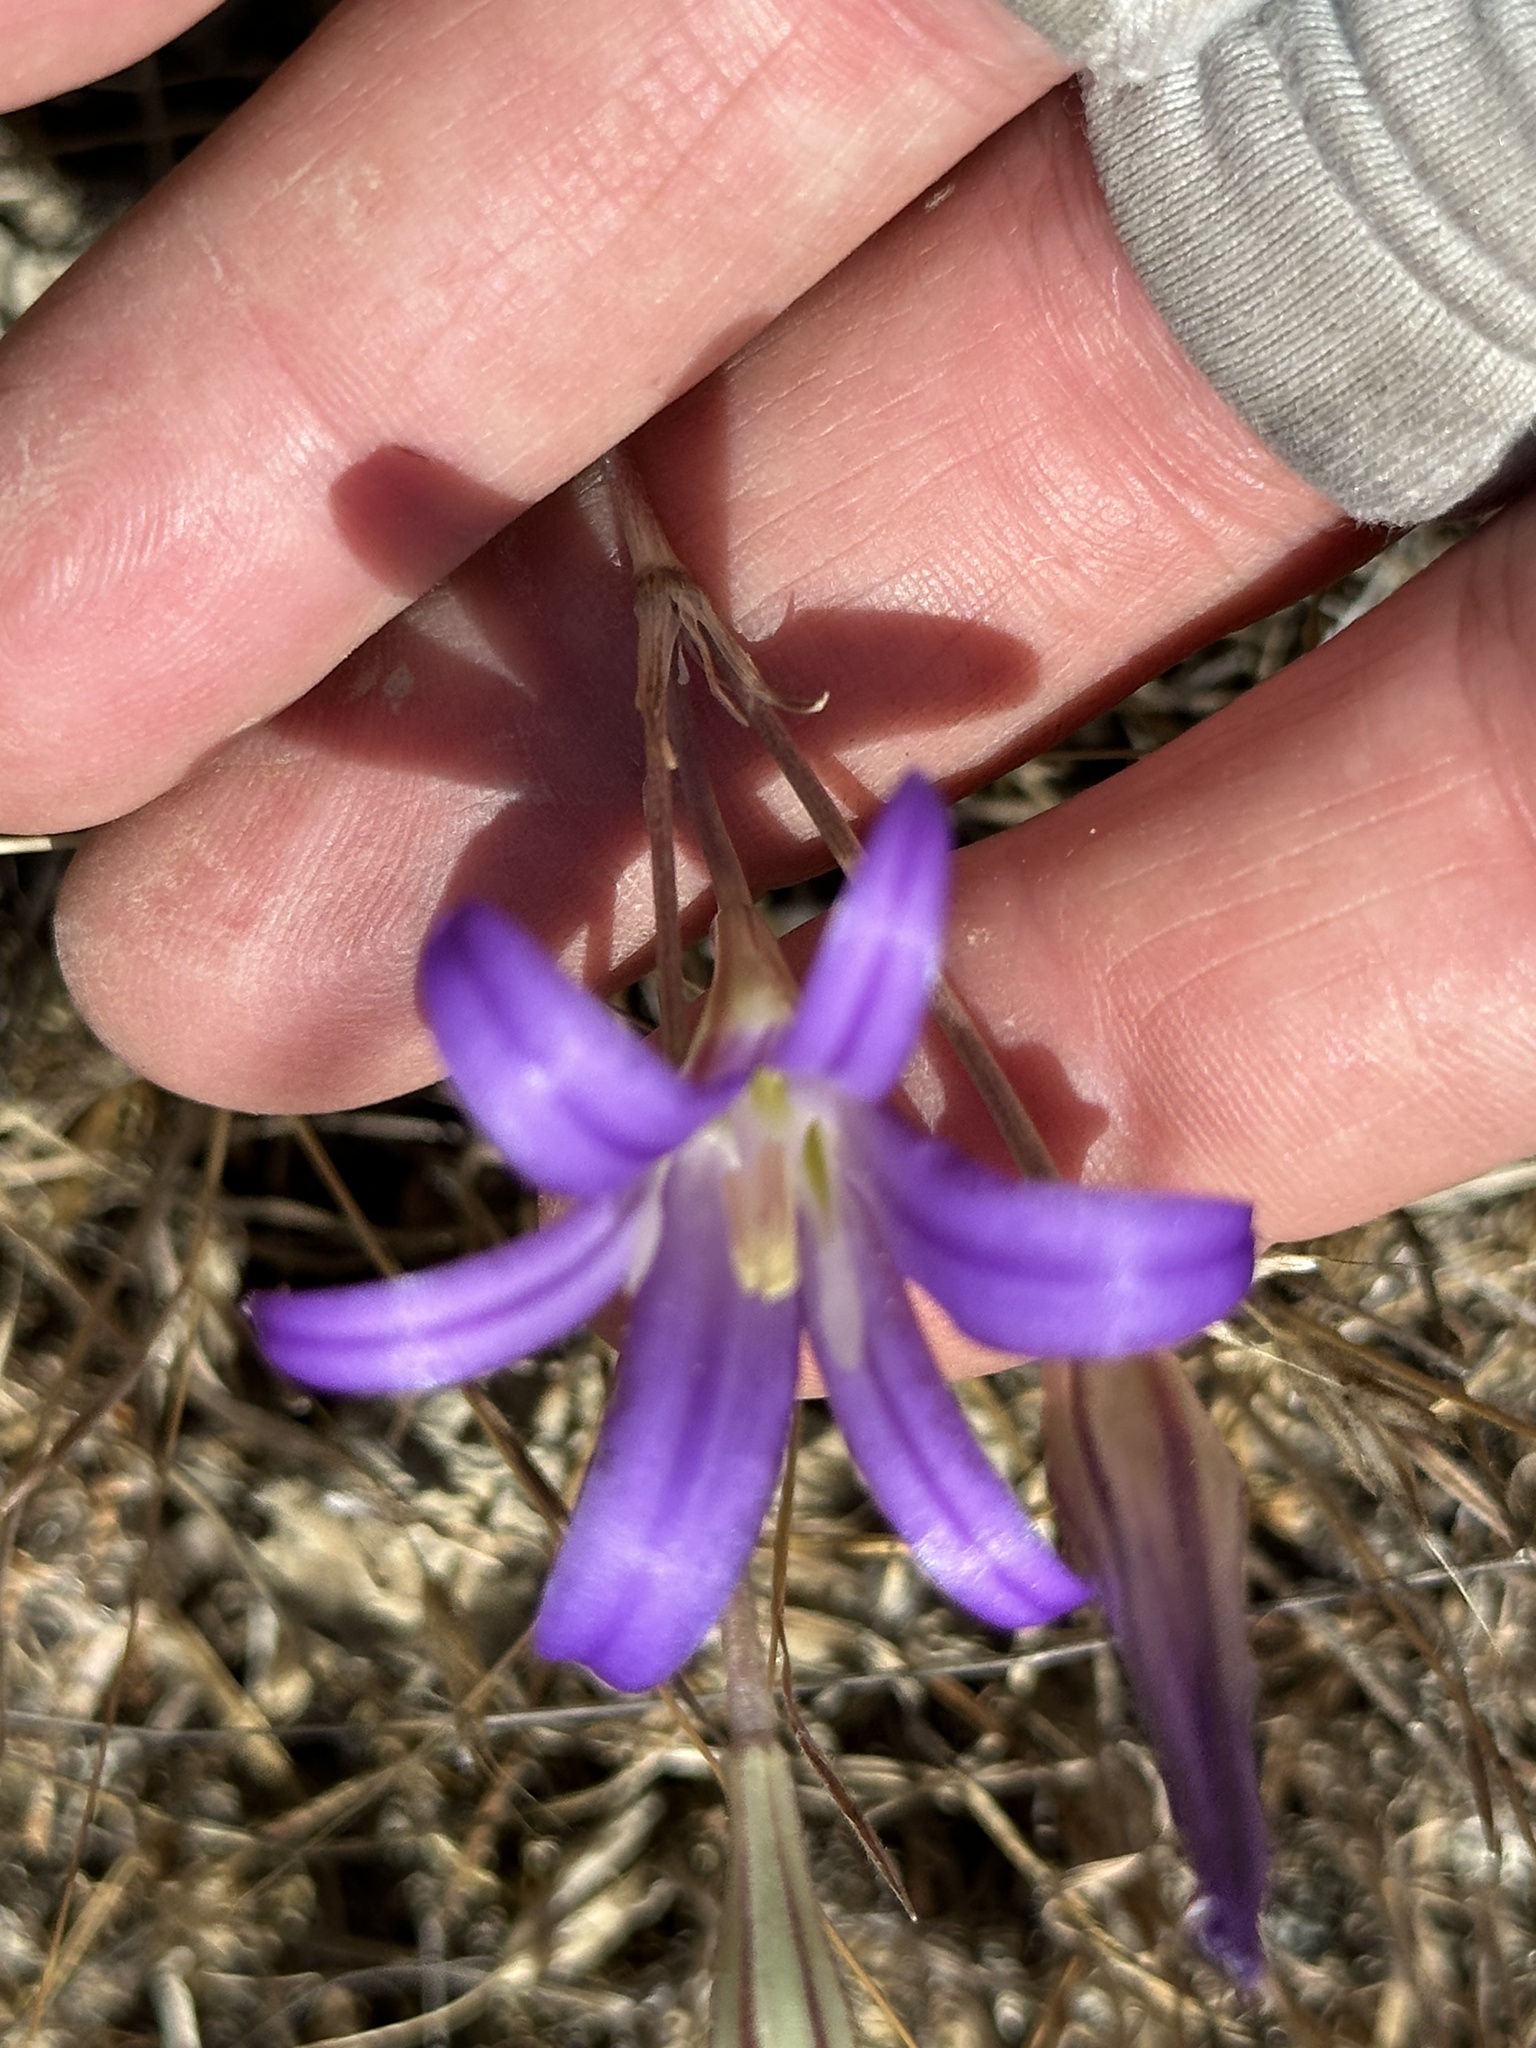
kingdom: Plantae
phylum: Tracheophyta
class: Liliopsida
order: Asparagales
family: Asparagaceae
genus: Brodiaea
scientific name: Brodiaea elegans
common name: Elegant cluster-lily
